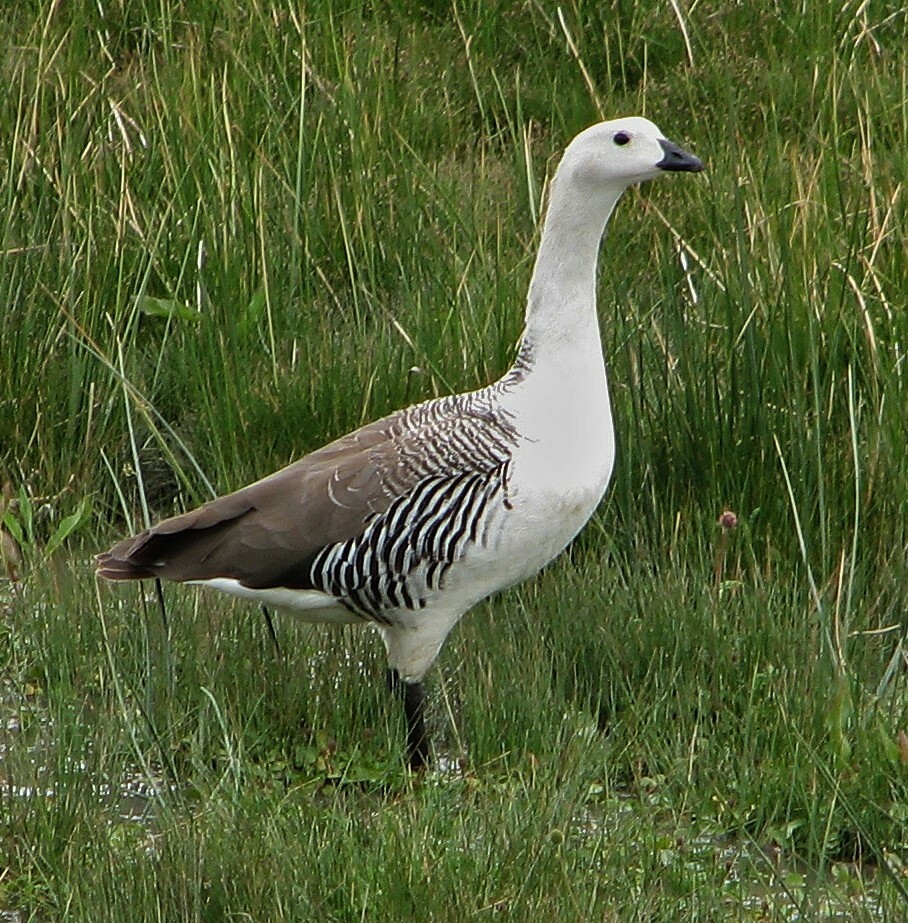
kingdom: Animalia
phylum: Chordata
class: Aves
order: Anseriformes
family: Anatidae
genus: Chloephaga
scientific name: Chloephaga picta
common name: Upland goose
